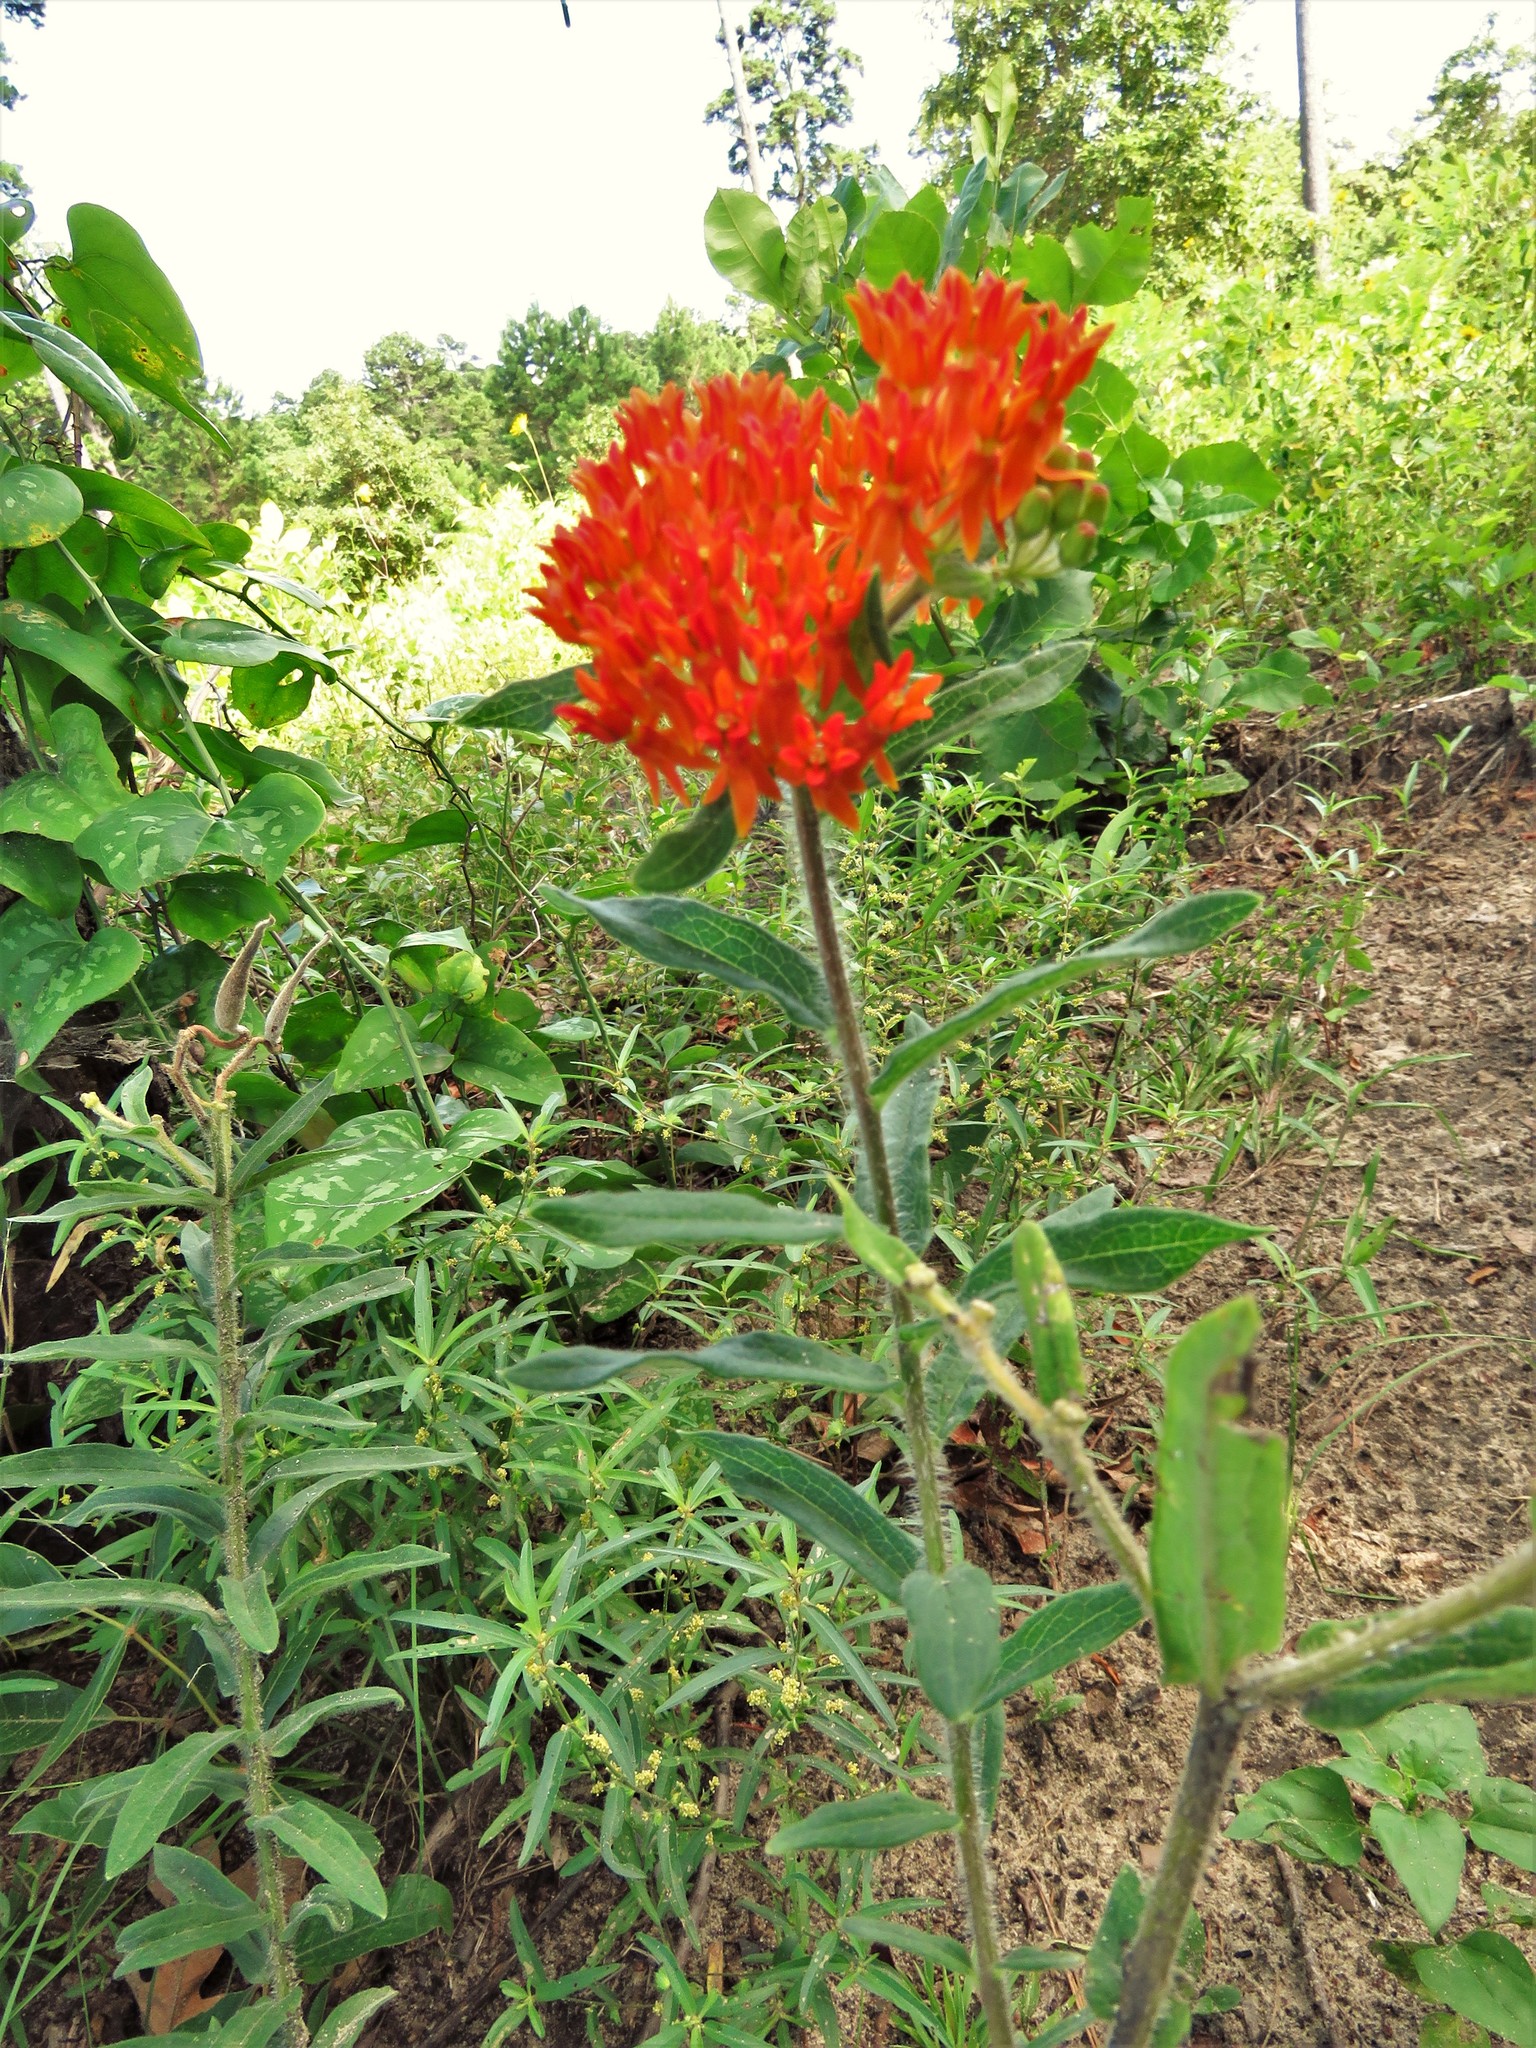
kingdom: Plantae
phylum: Tracheophyta
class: Magnoliopsida
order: Gentianales
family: Apocynaceae
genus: Asclepias
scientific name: Asclepias tuberosa
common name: Butterfly milkweed
